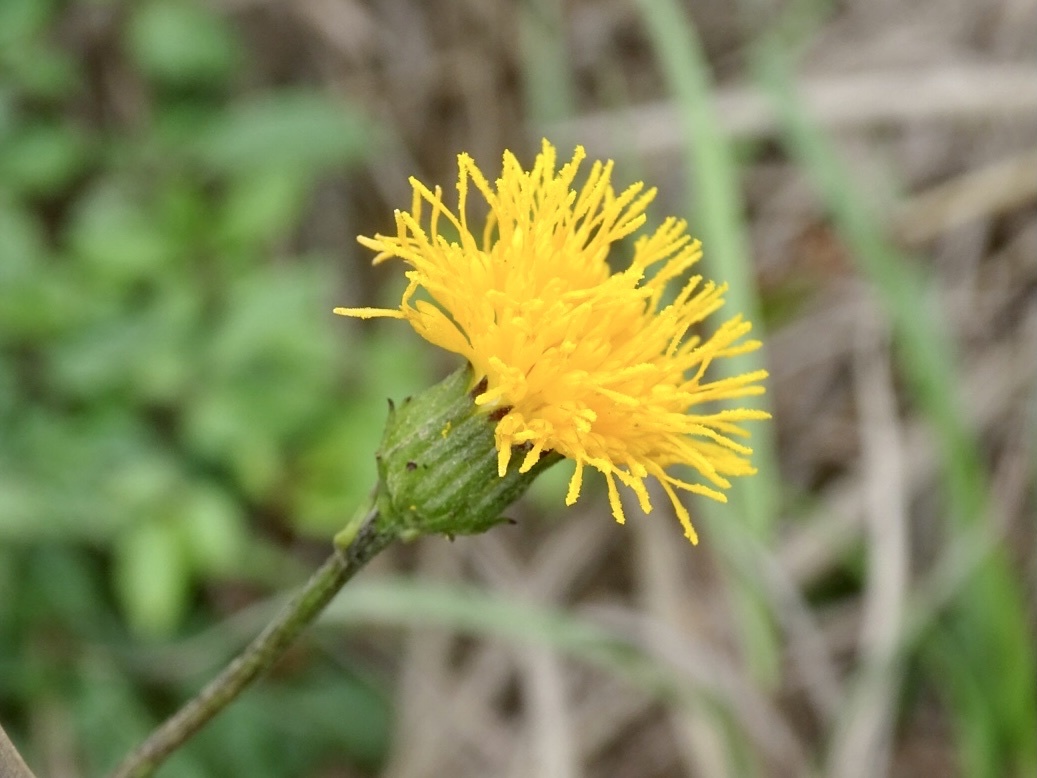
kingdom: Plantae
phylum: Tracheophyta
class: Magnoliopsida
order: Asterales
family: Asteraceae
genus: Gynura
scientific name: Gynura divaricata
